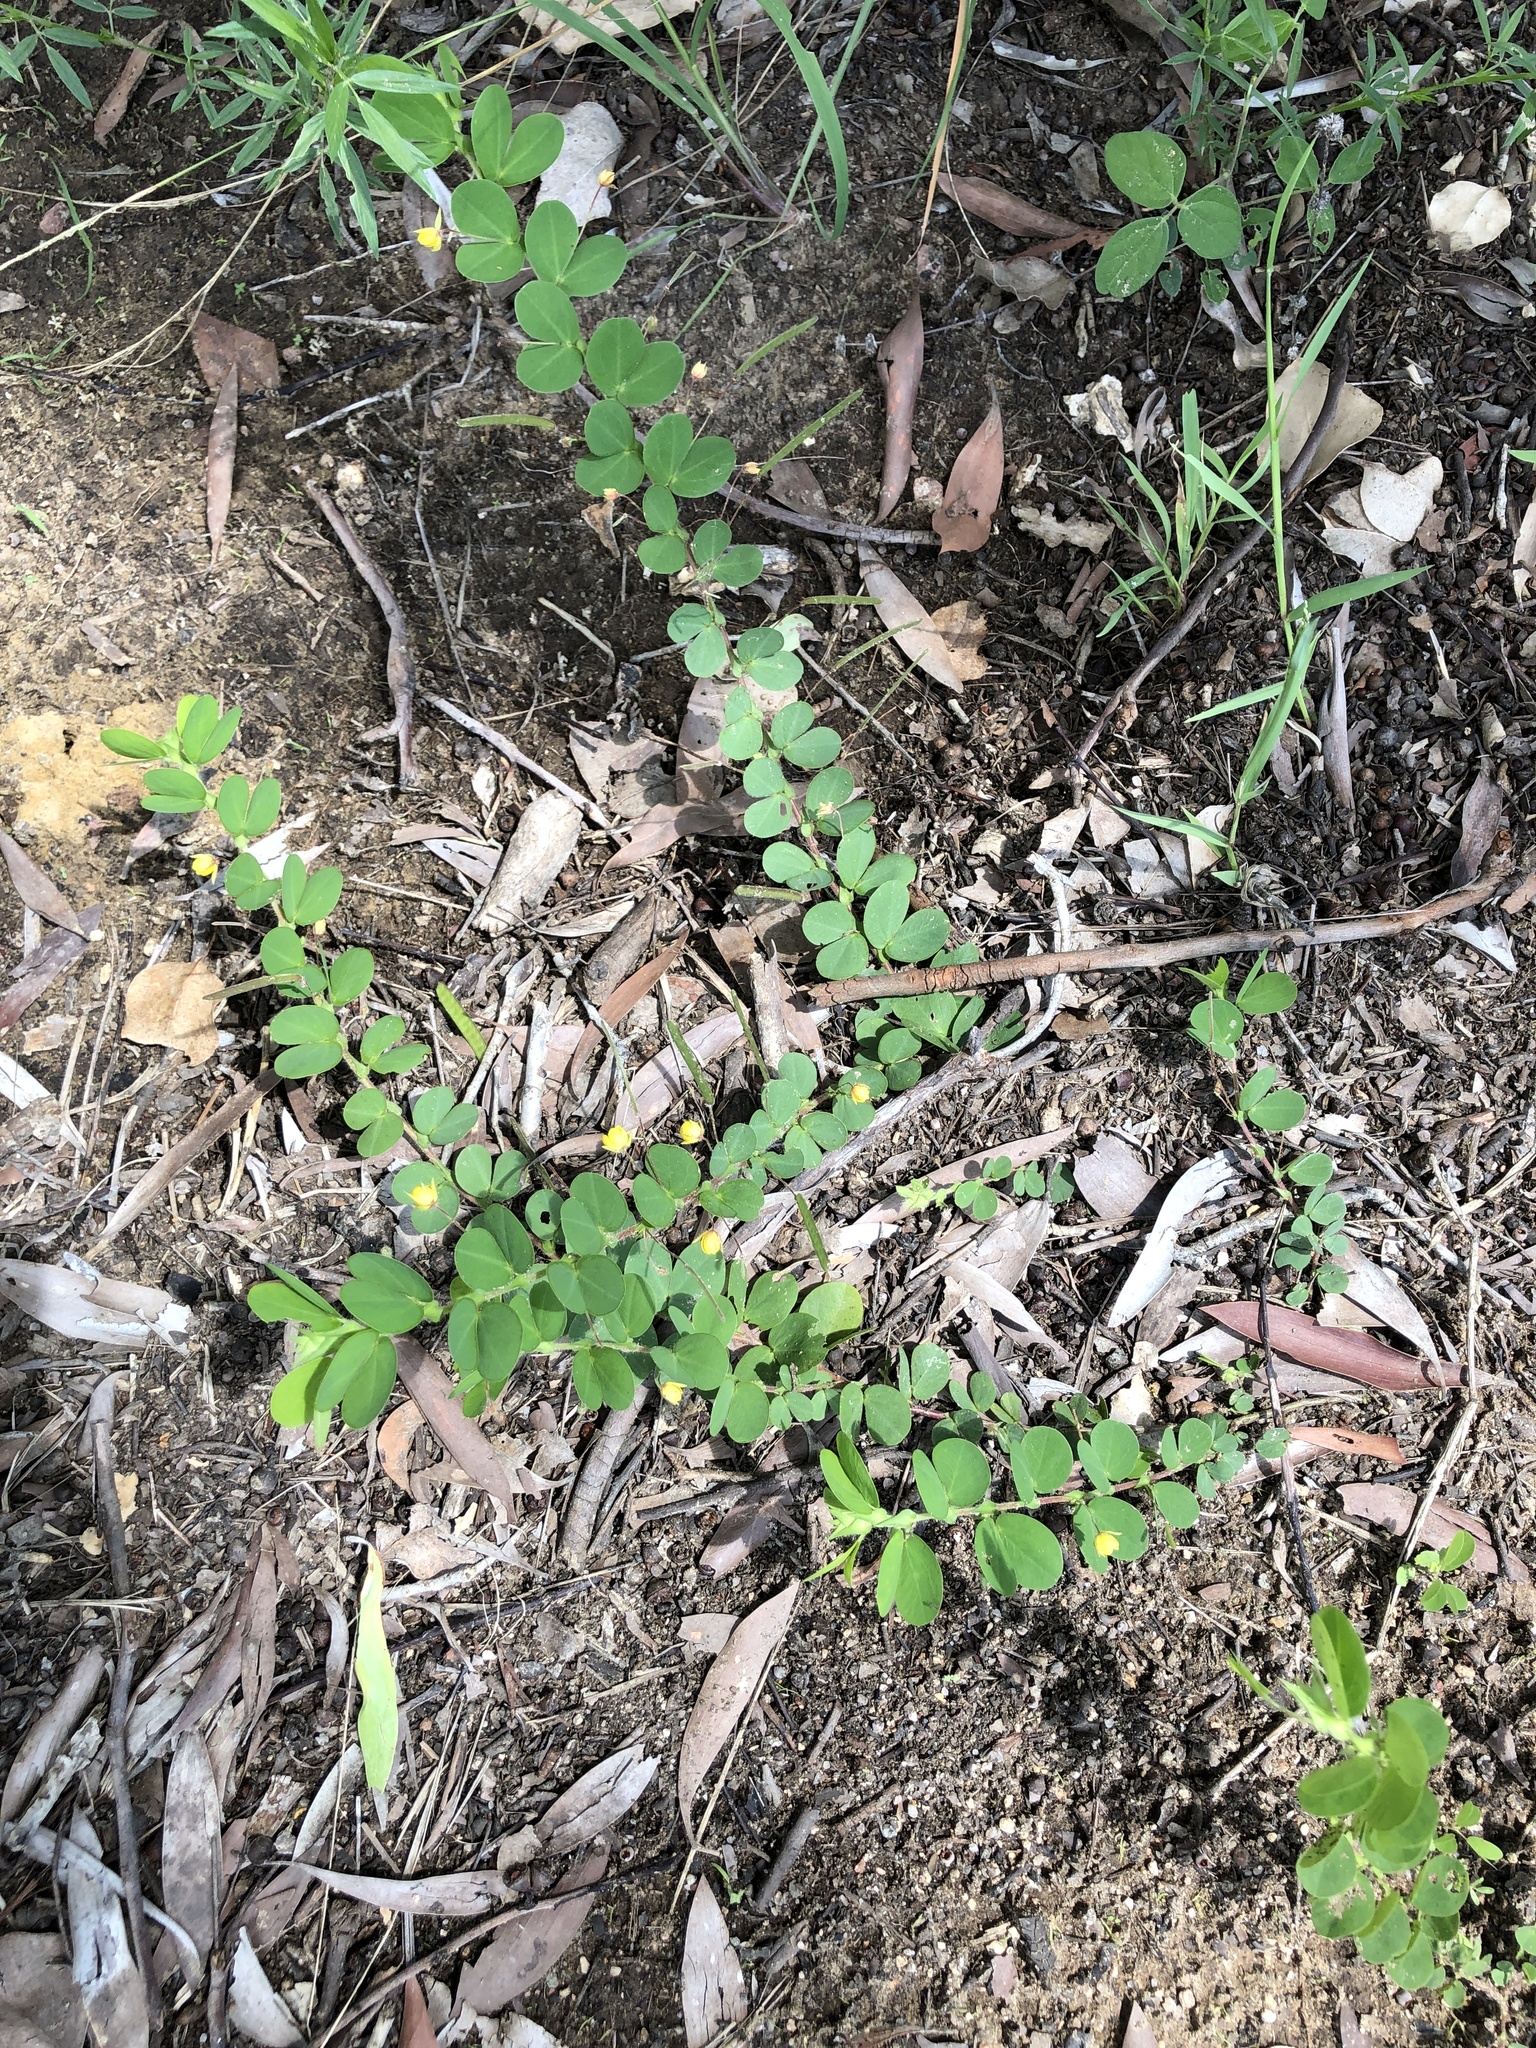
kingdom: Plantae
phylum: Tracheophyta
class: Magnoliopsida
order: Fabales
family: Fabaceae
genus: Chamaecrista
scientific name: Chamaecrista rotundifolia
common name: Round-leaf cassia
